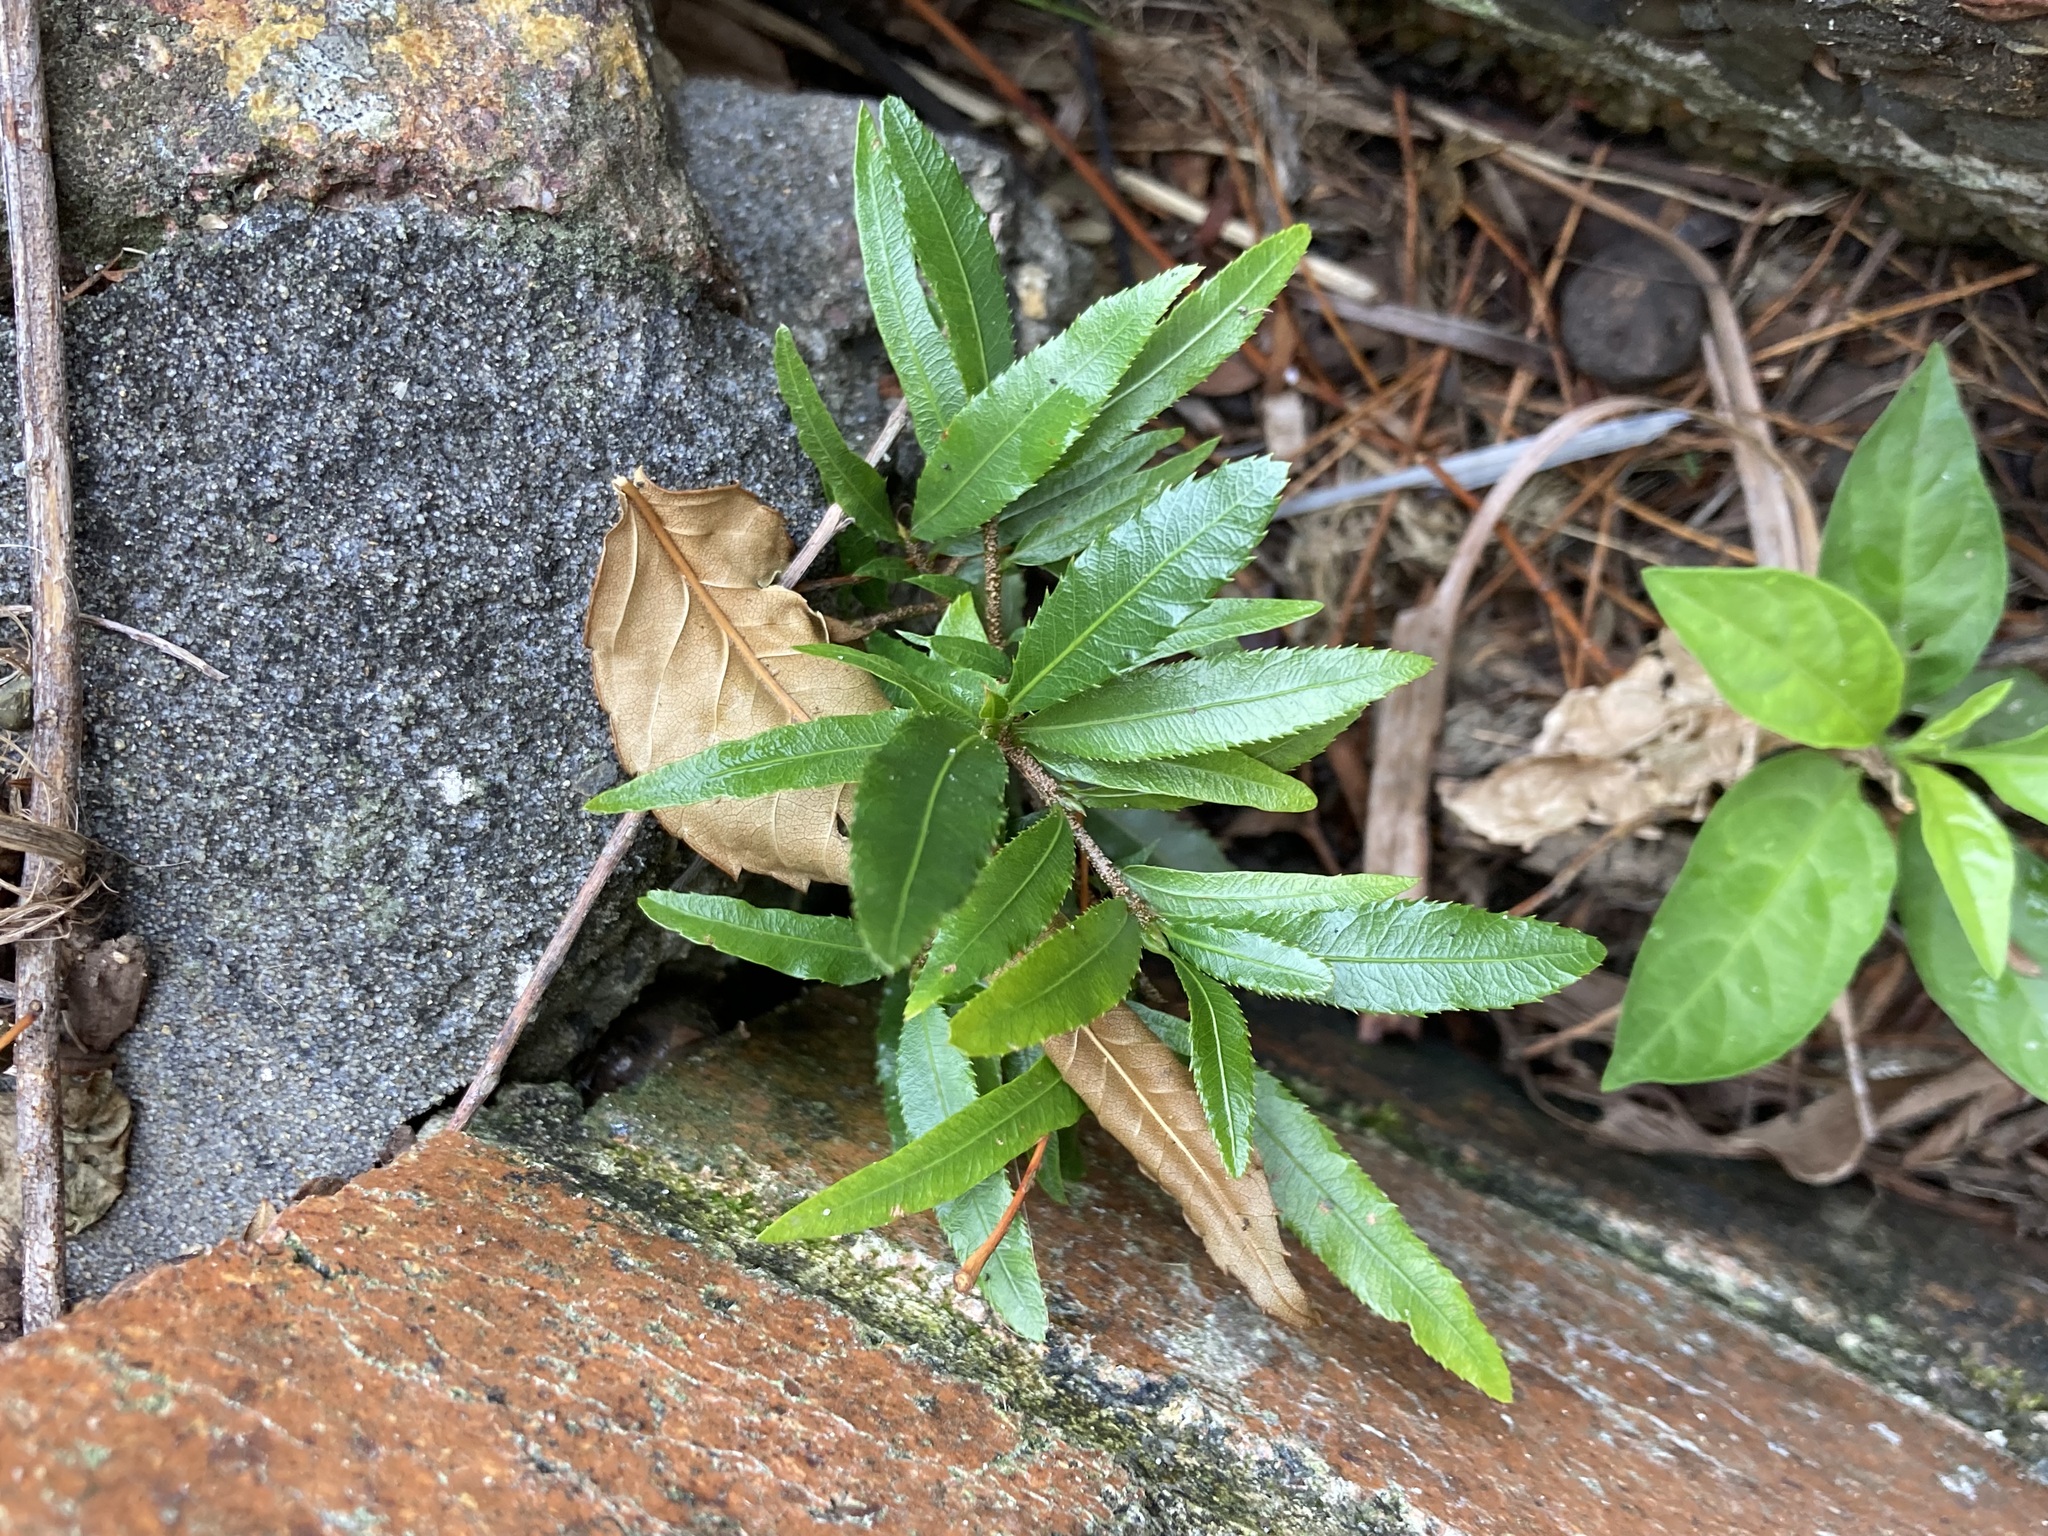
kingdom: Plantae
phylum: Tracheophyta
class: Magnoliopsida
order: Malpighiales
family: Ochnaceae
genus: Ochna
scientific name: Ochna serrulata
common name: Mickey mouse plant
